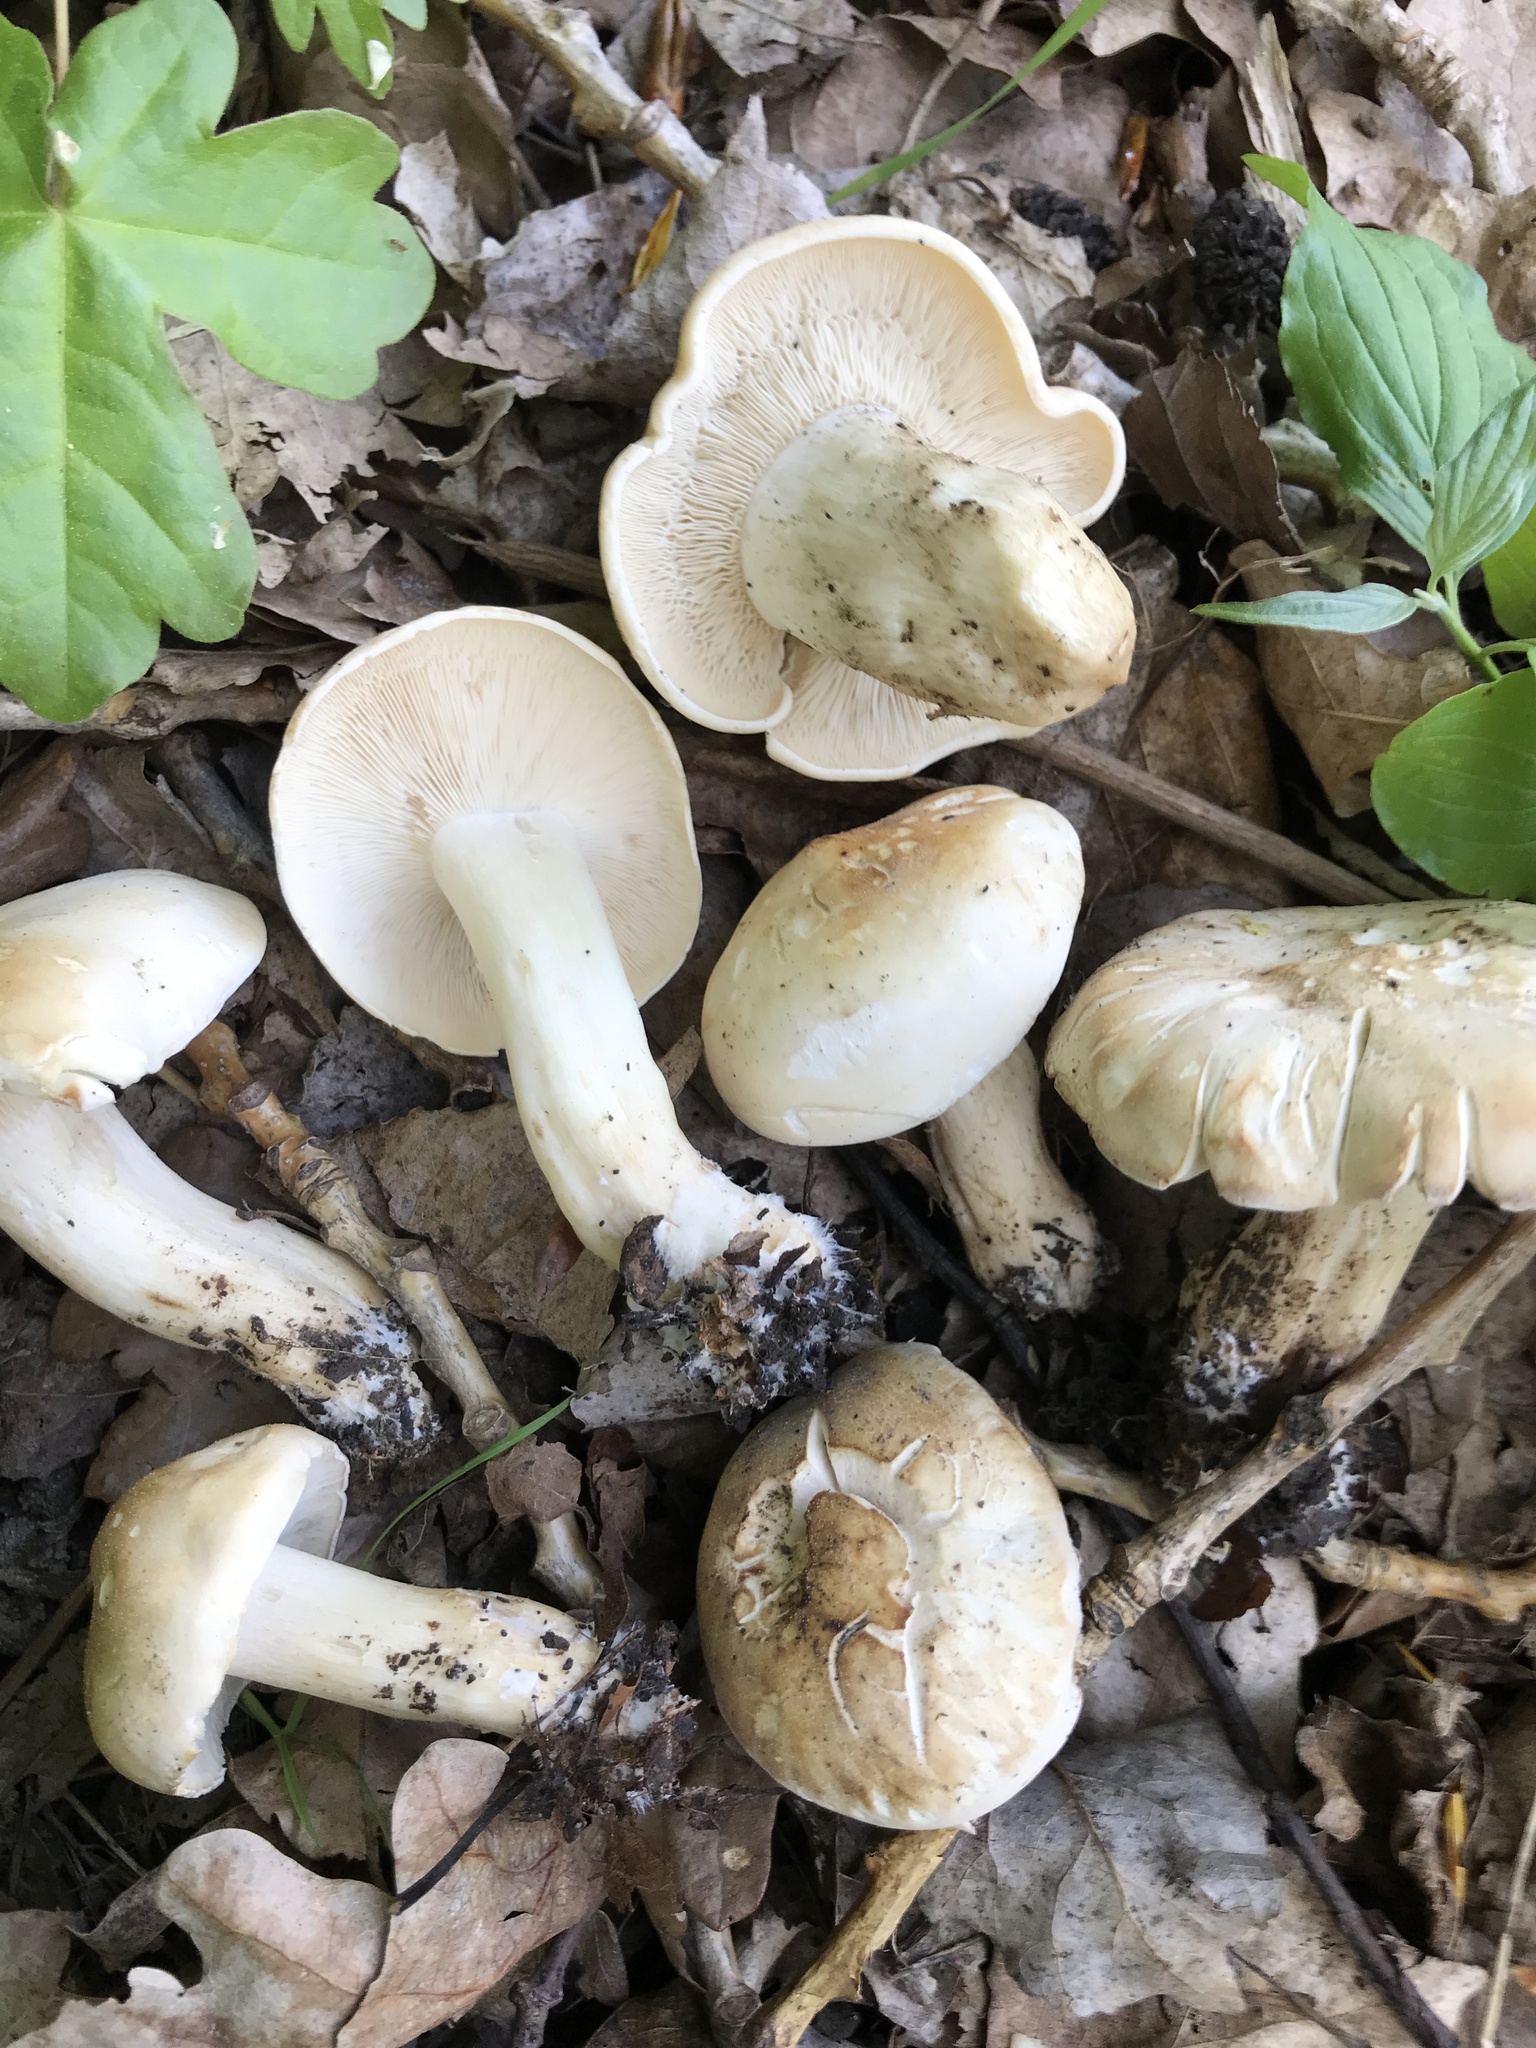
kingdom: Fungi
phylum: Basidiomycota
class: Agaricomycetes
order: Agaricales
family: Lyophyllaceae
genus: Calocybe
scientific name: Calocybe gambosa
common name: St. george's mushroom
